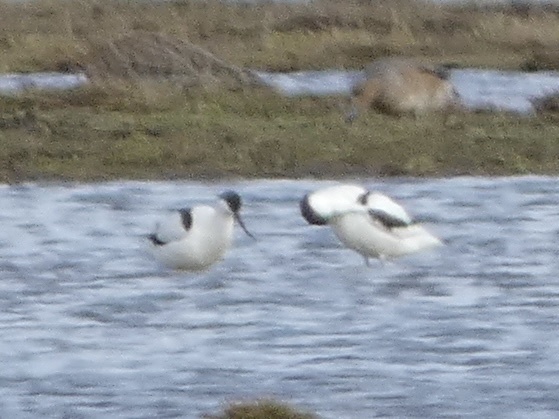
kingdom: Animalia
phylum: Chordata
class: Aves
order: Charadriiformes
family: Recurvirostridae
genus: Recurvirostra
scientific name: Recurvirostra avosetta
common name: Pied avocet
